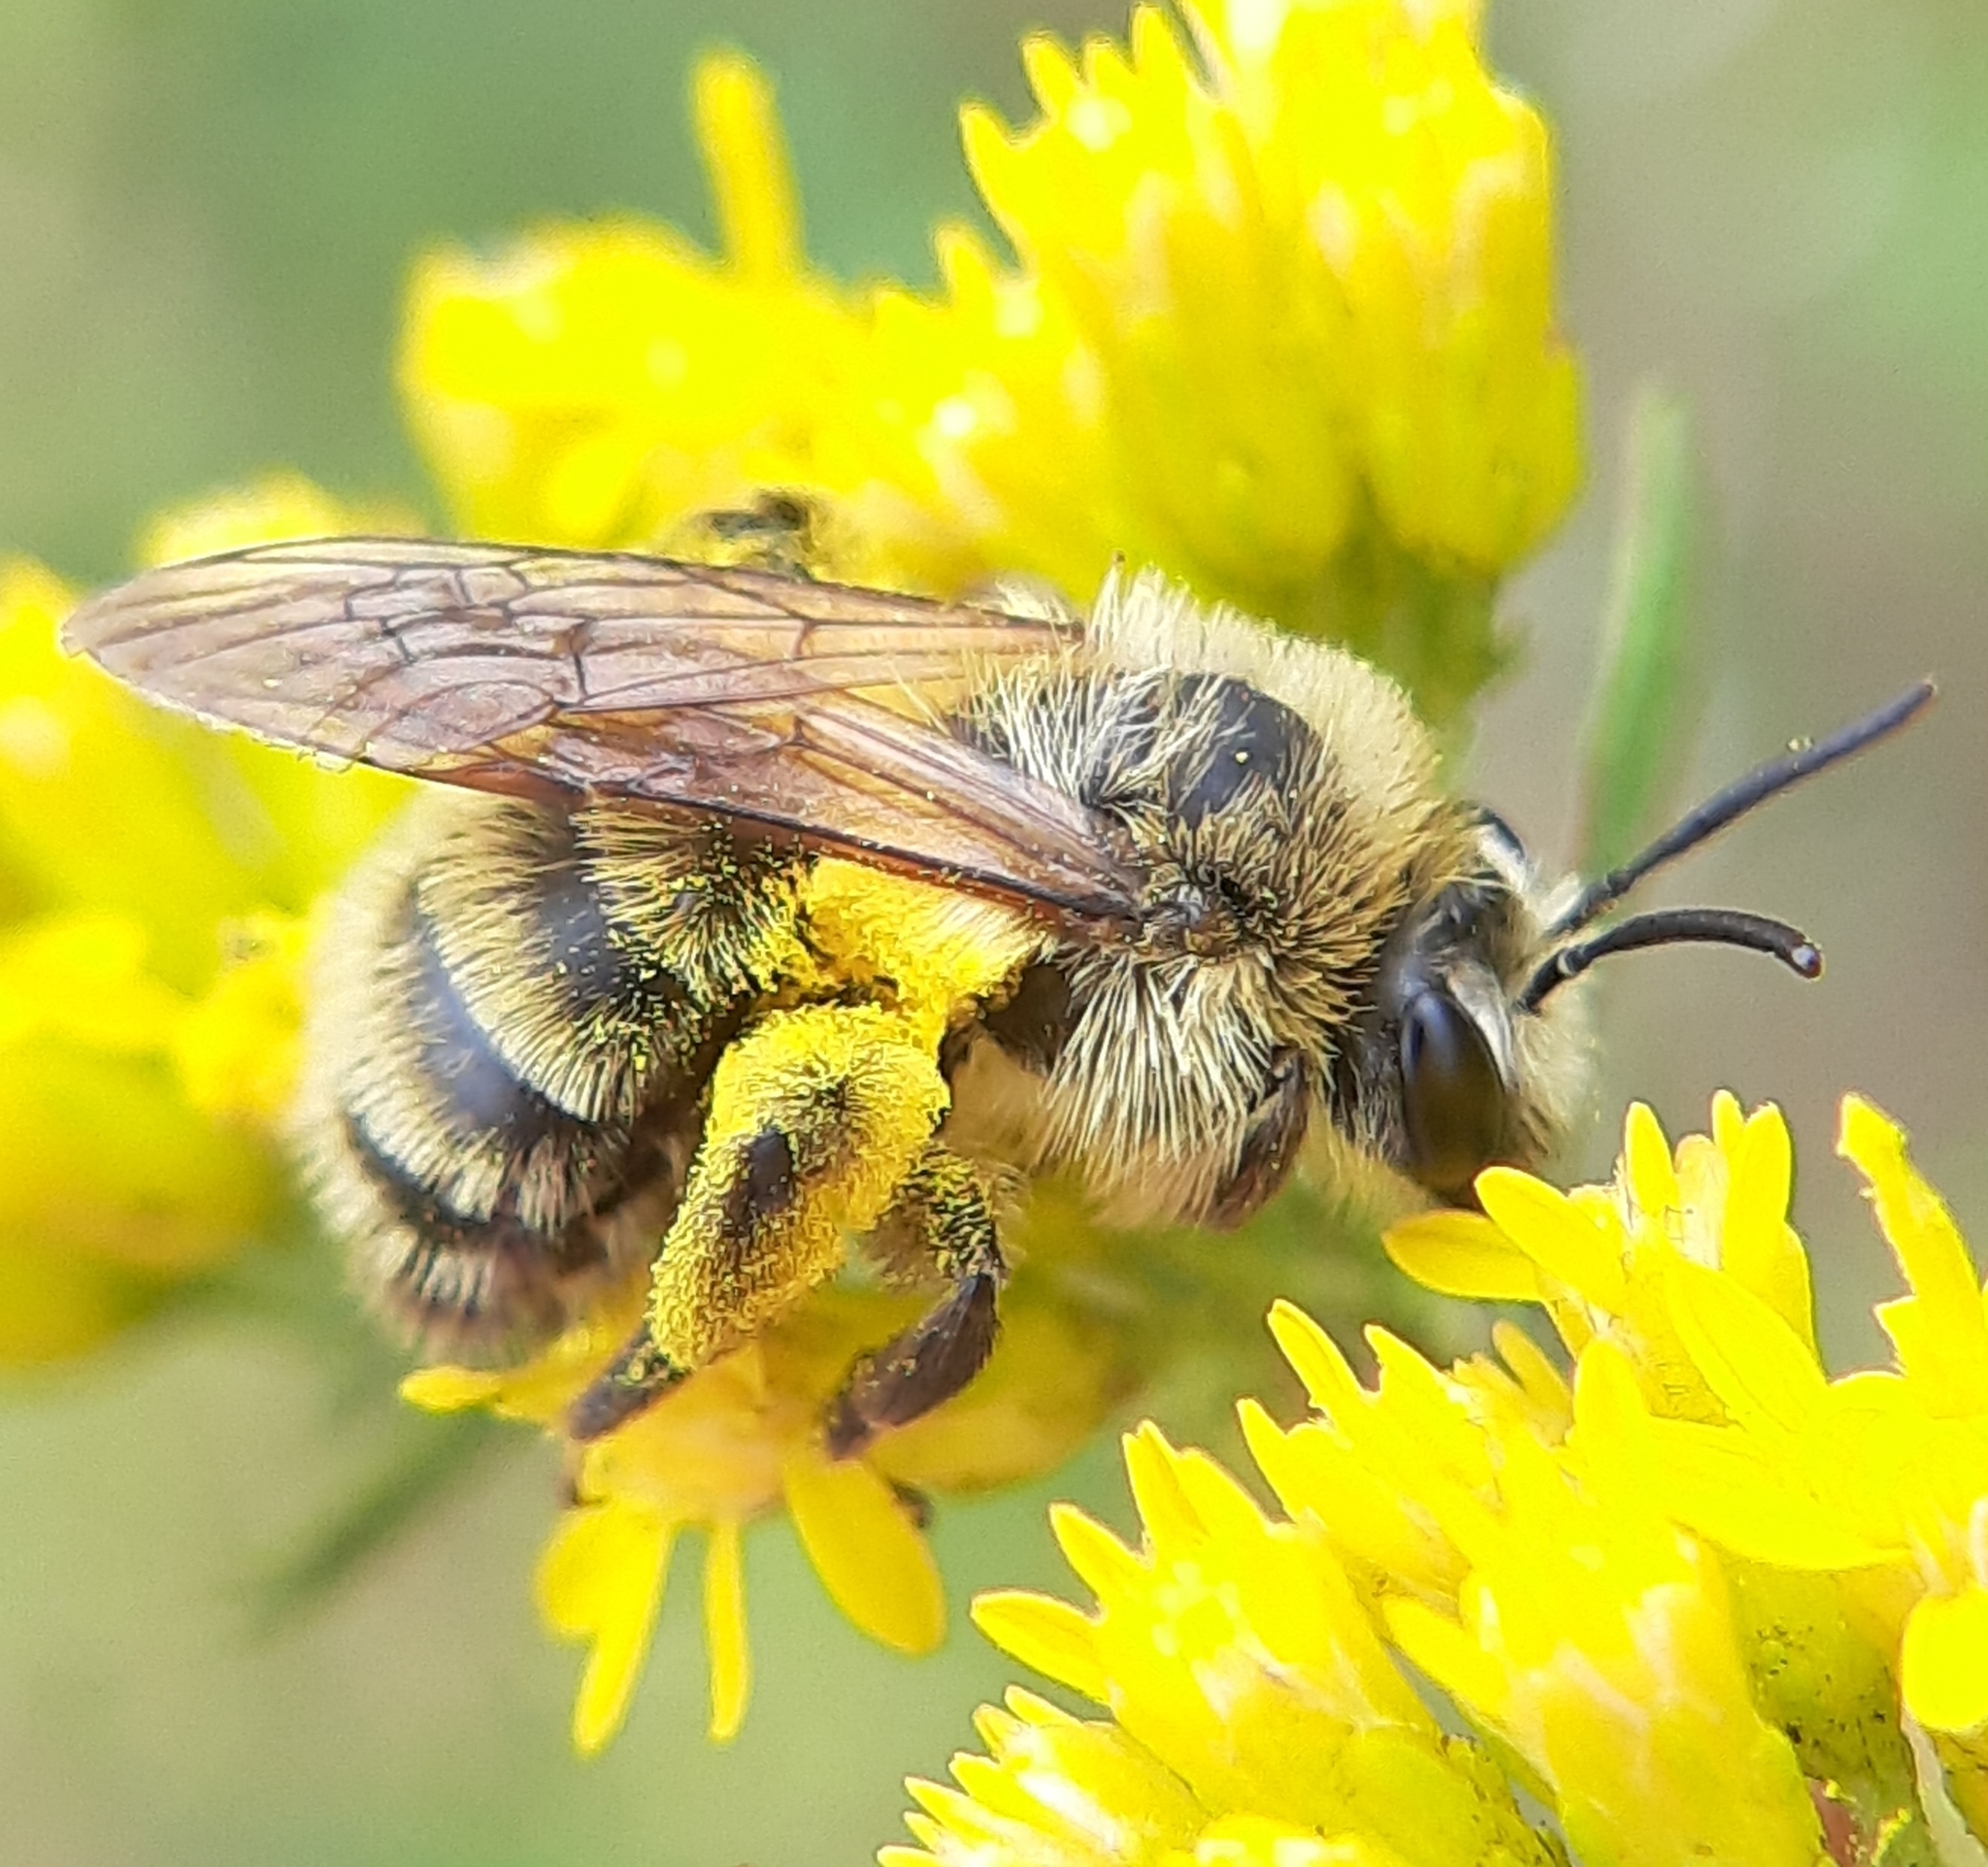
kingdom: Animalia
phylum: Arthropoda
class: Insecta
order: Hymenoptera
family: Andrenidae
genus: Andrena
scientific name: Andrena hirticincta
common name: Hairy-banded mining bee
